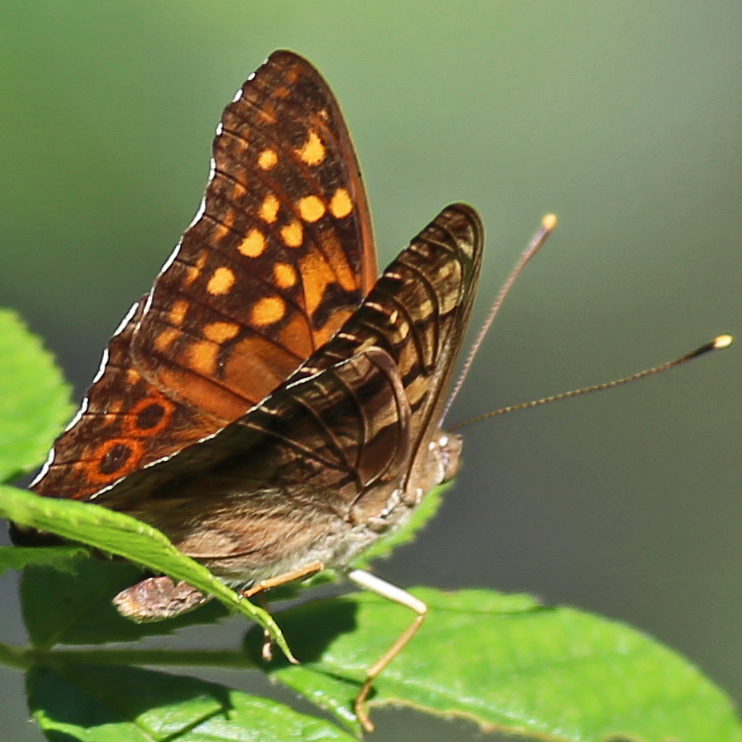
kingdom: Animalia
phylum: Arthropoda
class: Insecta
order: Lepidoptera
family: Nymphalidae
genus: Asterocampa
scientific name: Asterocampa clyton
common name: Tawny emperor
